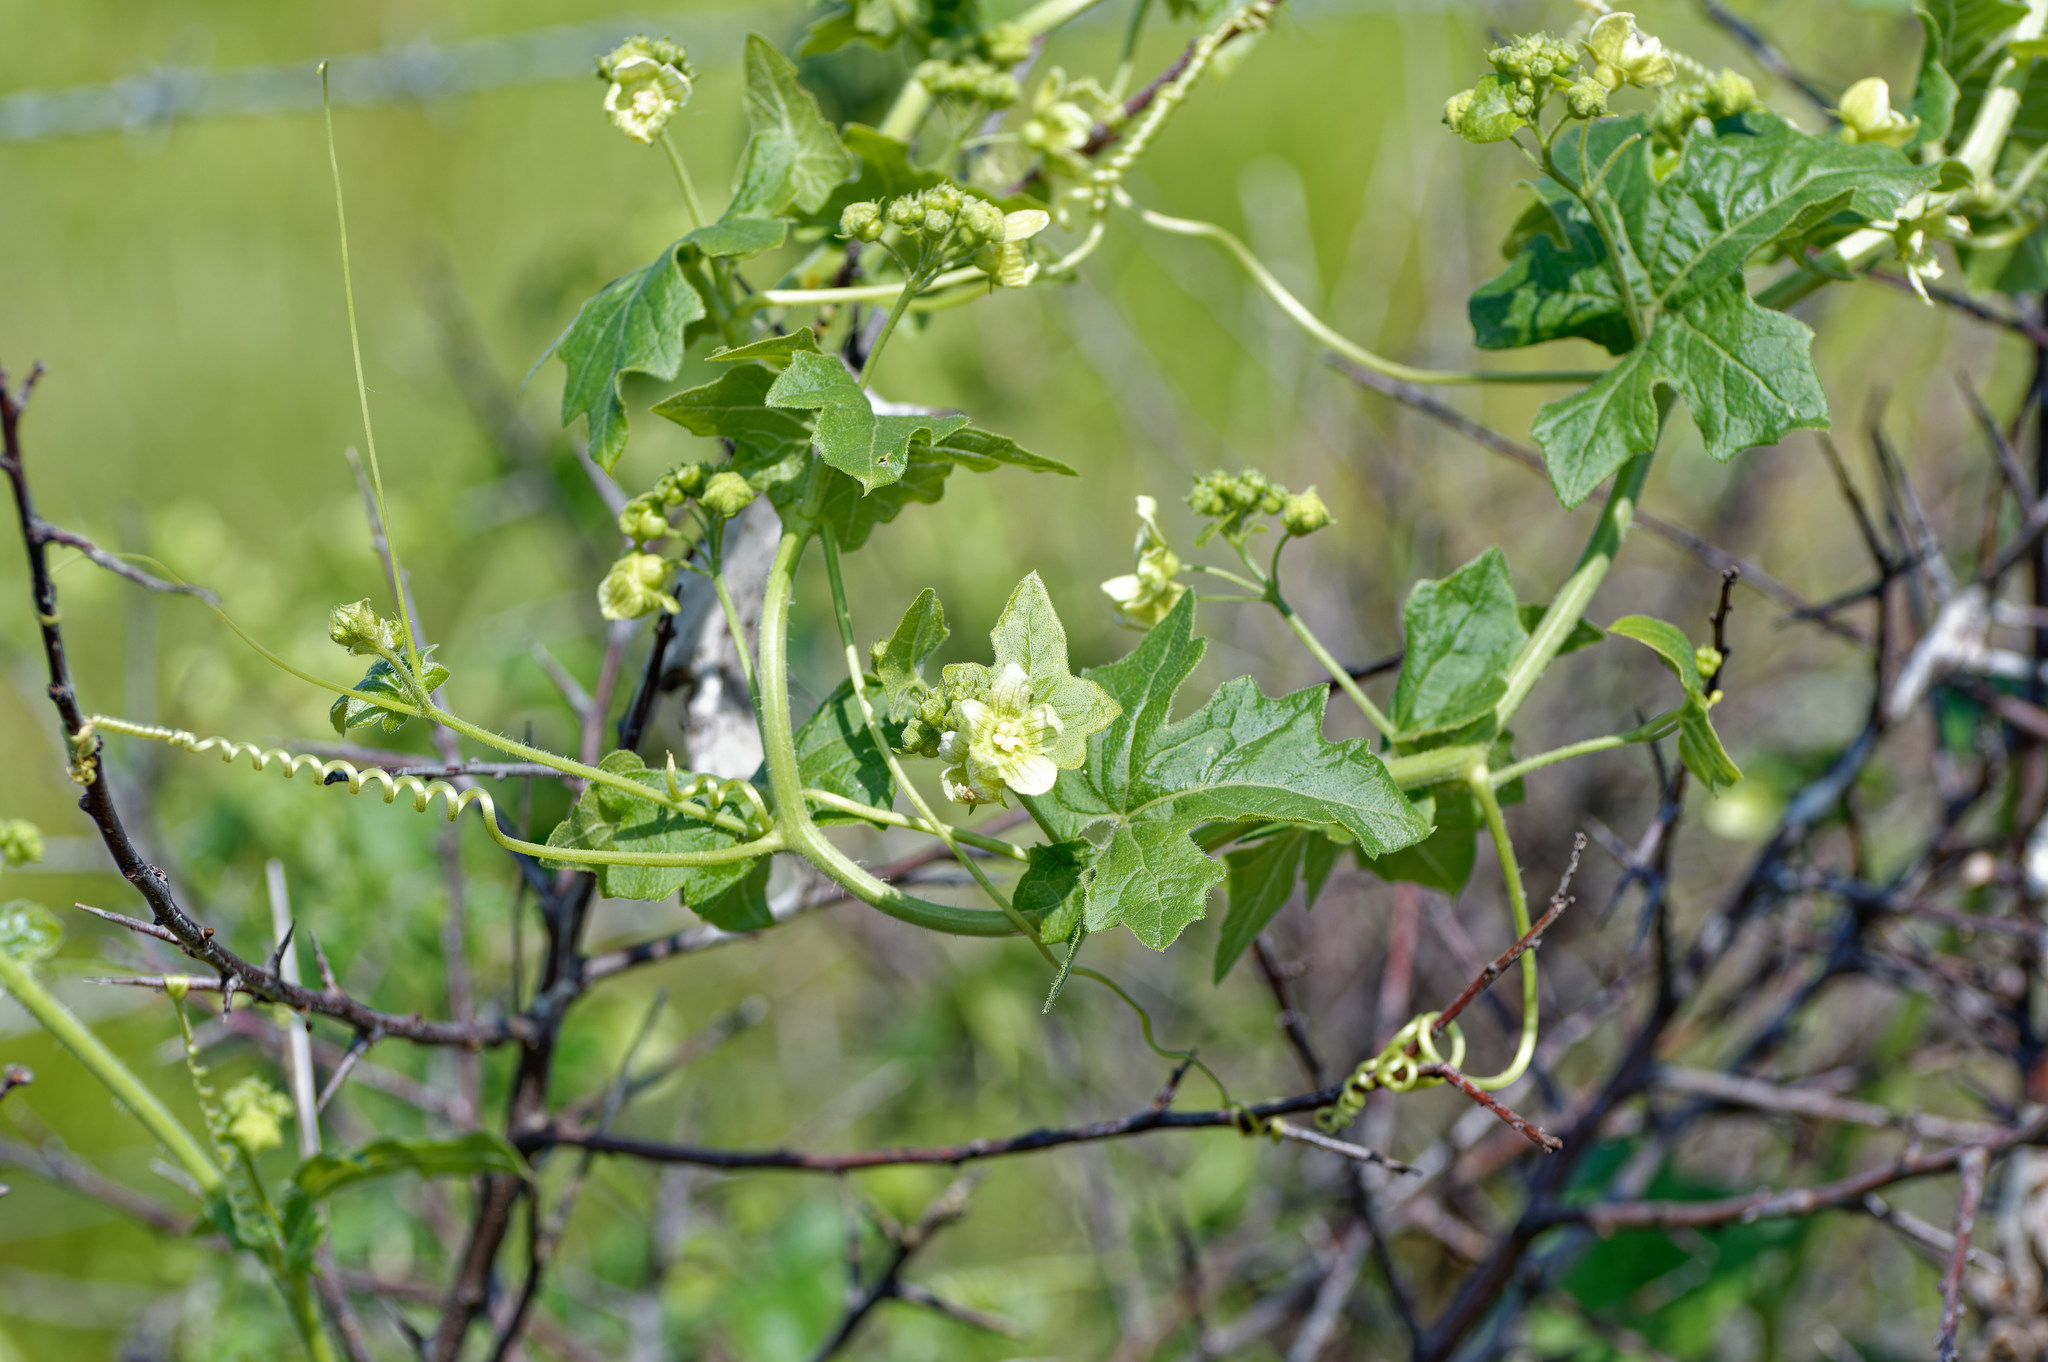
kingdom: Plantae
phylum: Tracheophyta
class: Magnoliopsida
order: Cucurbitales
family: Cucurbitaceae
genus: Bryonia
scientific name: Bryonia cretica
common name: Cretan bryony
